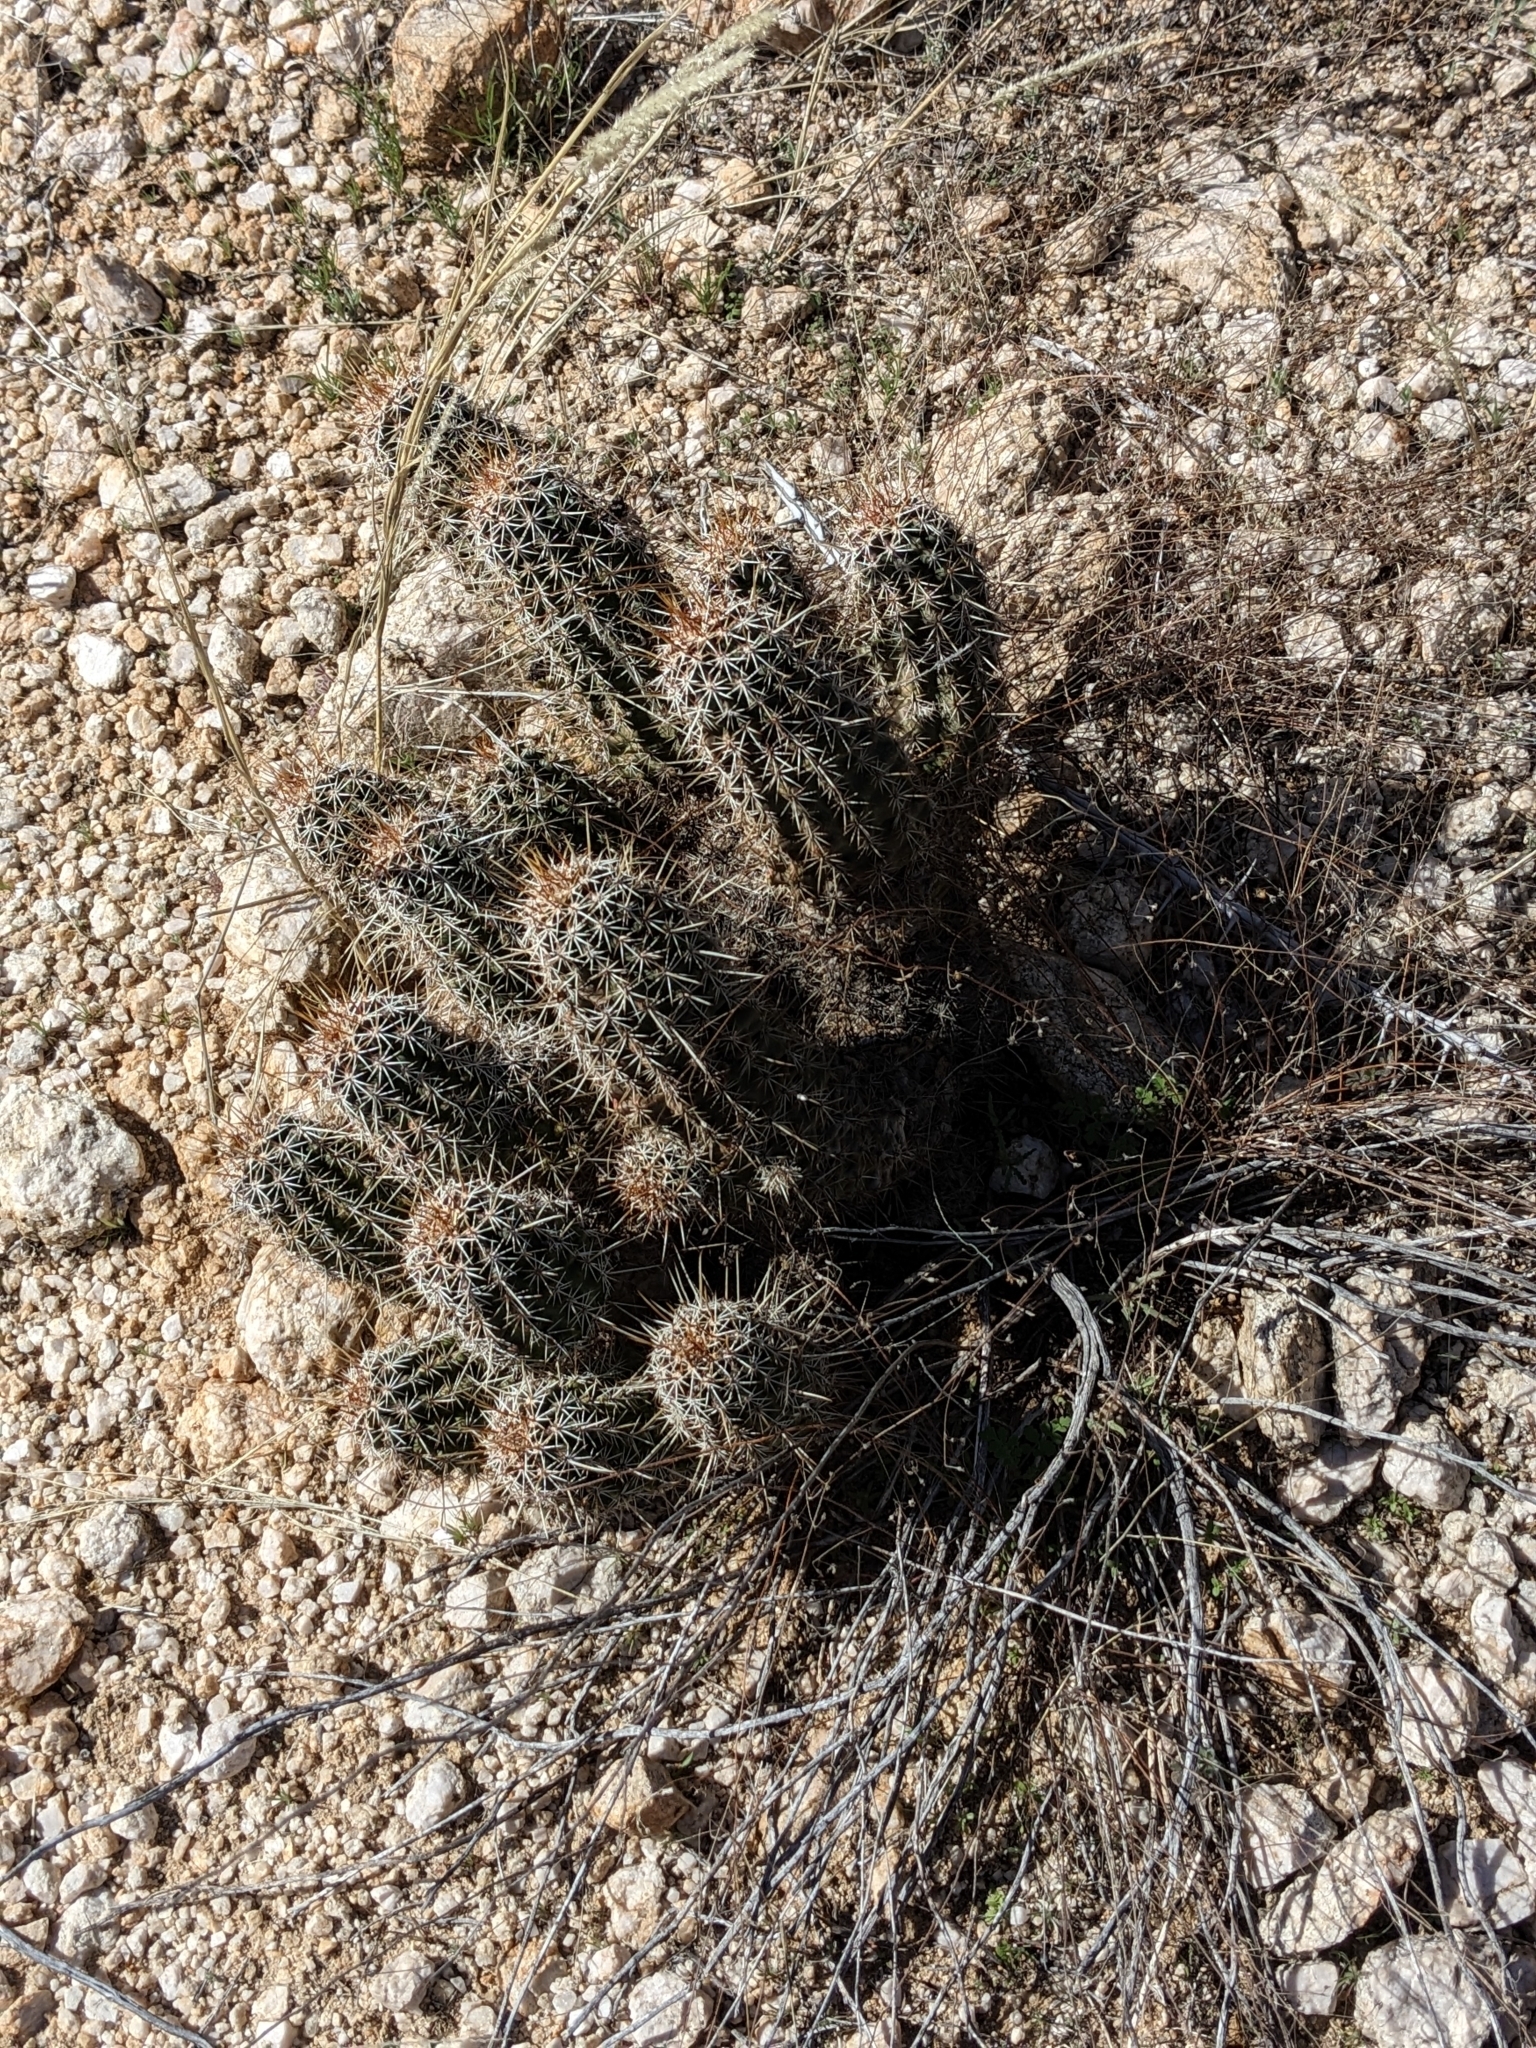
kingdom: Plantae
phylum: Tracheophyta
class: Magnoliopsida
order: Caryophyllales
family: Cactaceae
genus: Echinocereus
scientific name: Echinocereus fasciculatus
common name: Bundle hedgehog
